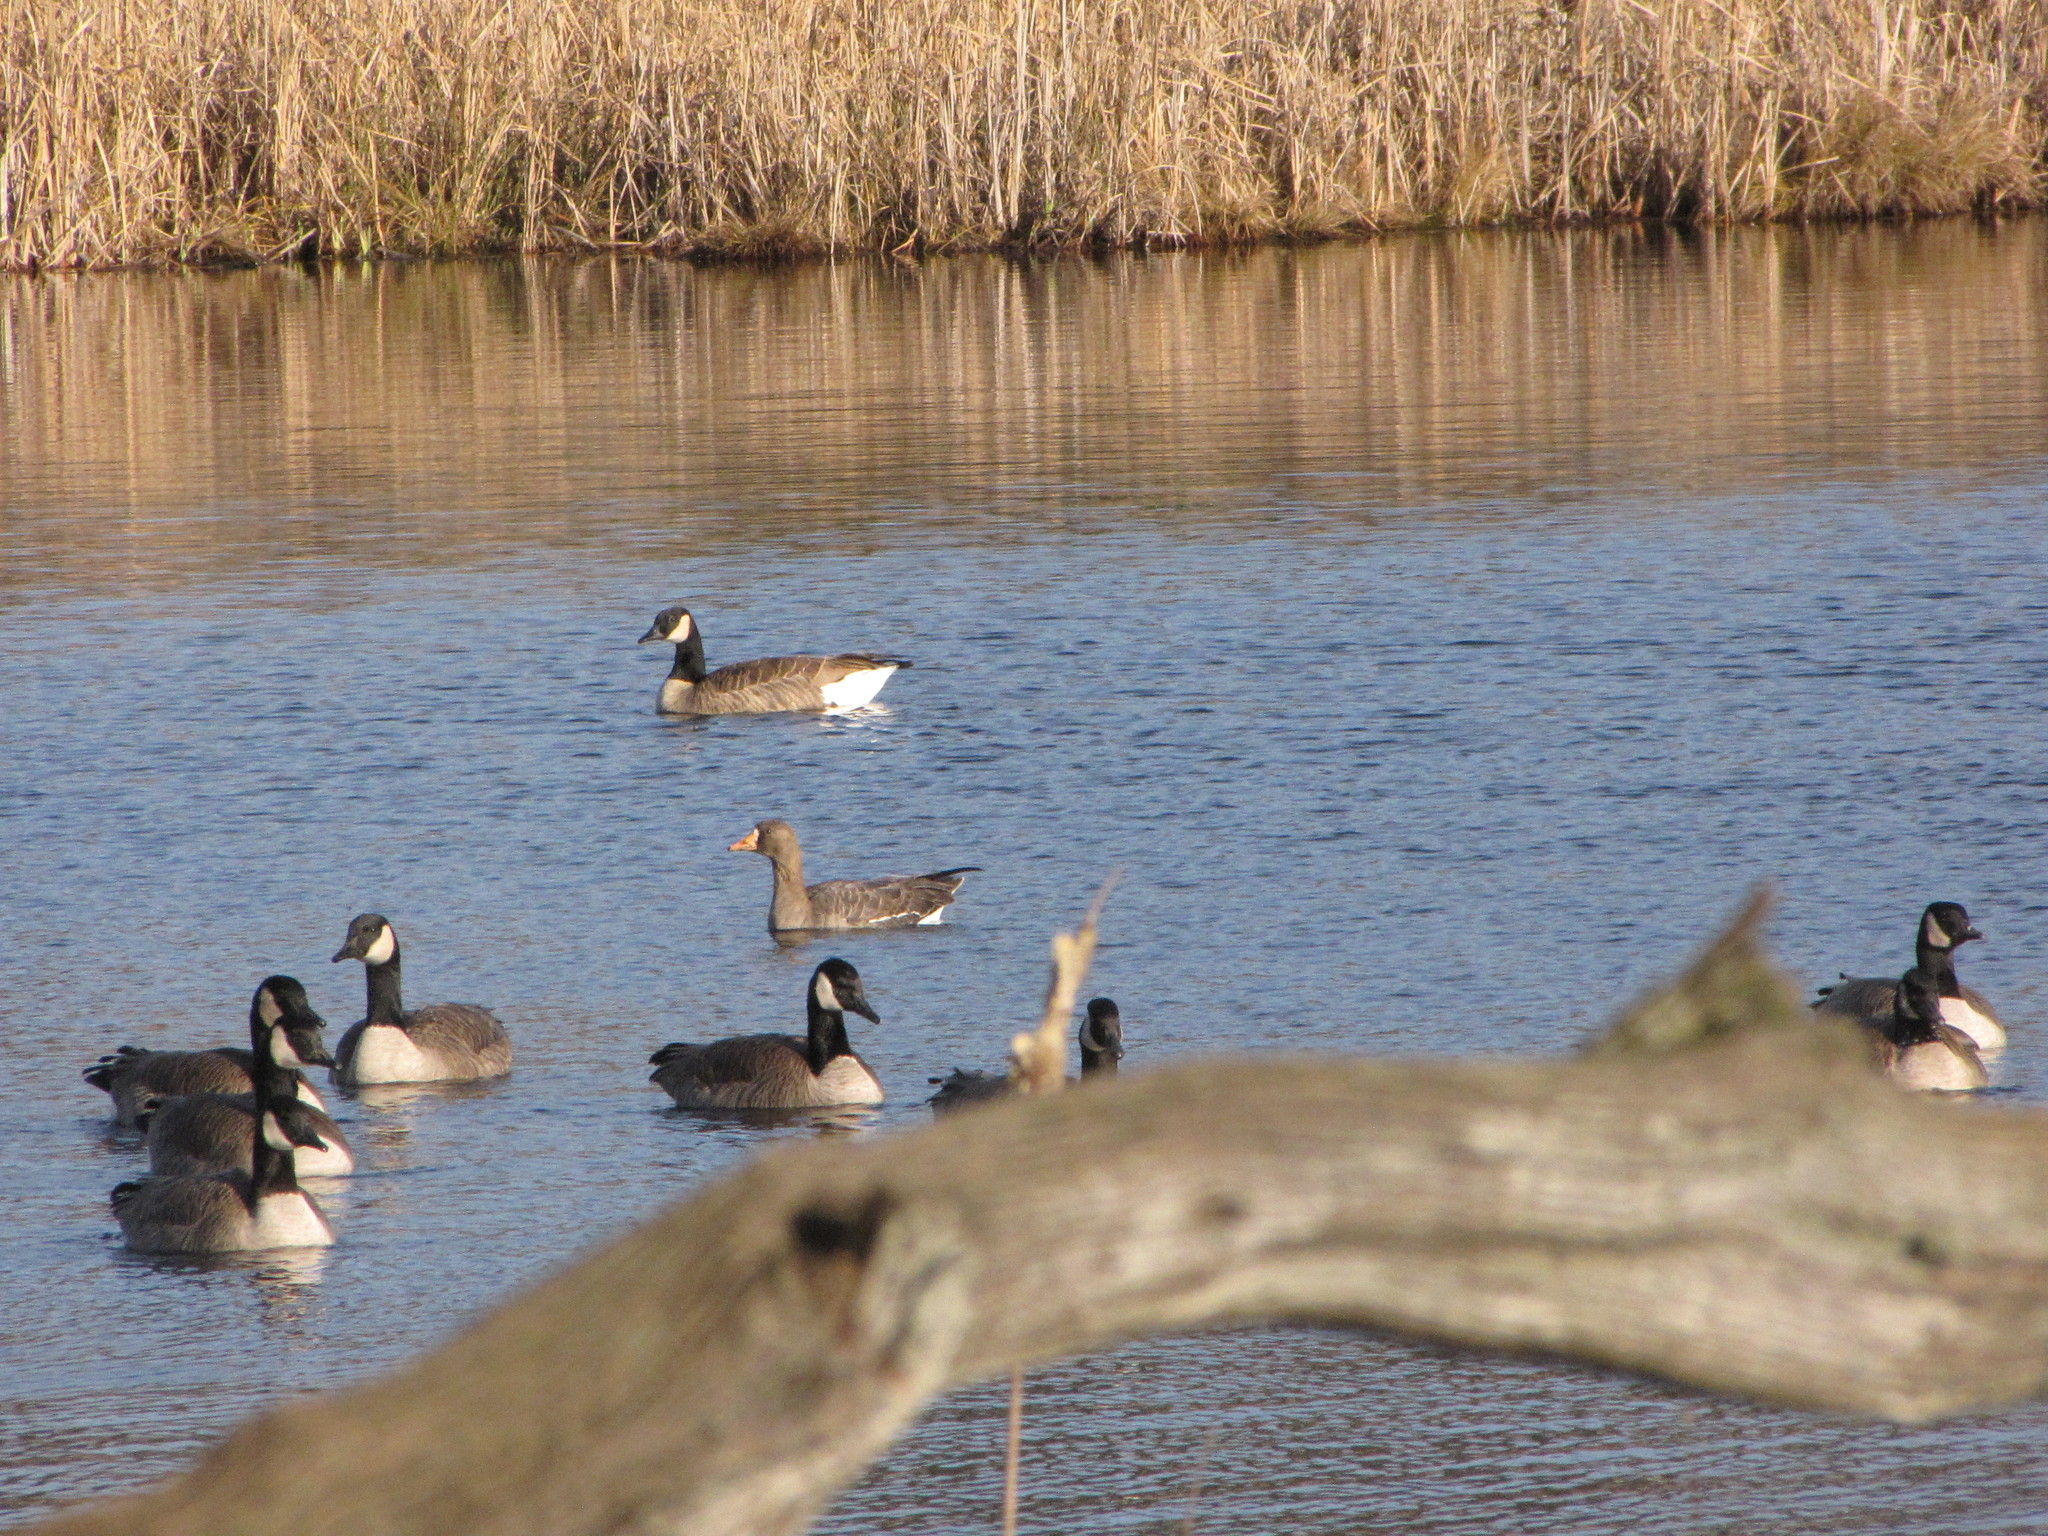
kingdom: Animalia
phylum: Chordata
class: Aves
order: Anseriformes
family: Anatidae
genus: Anser
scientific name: Anser albifrons
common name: Greater white-fronted goose
